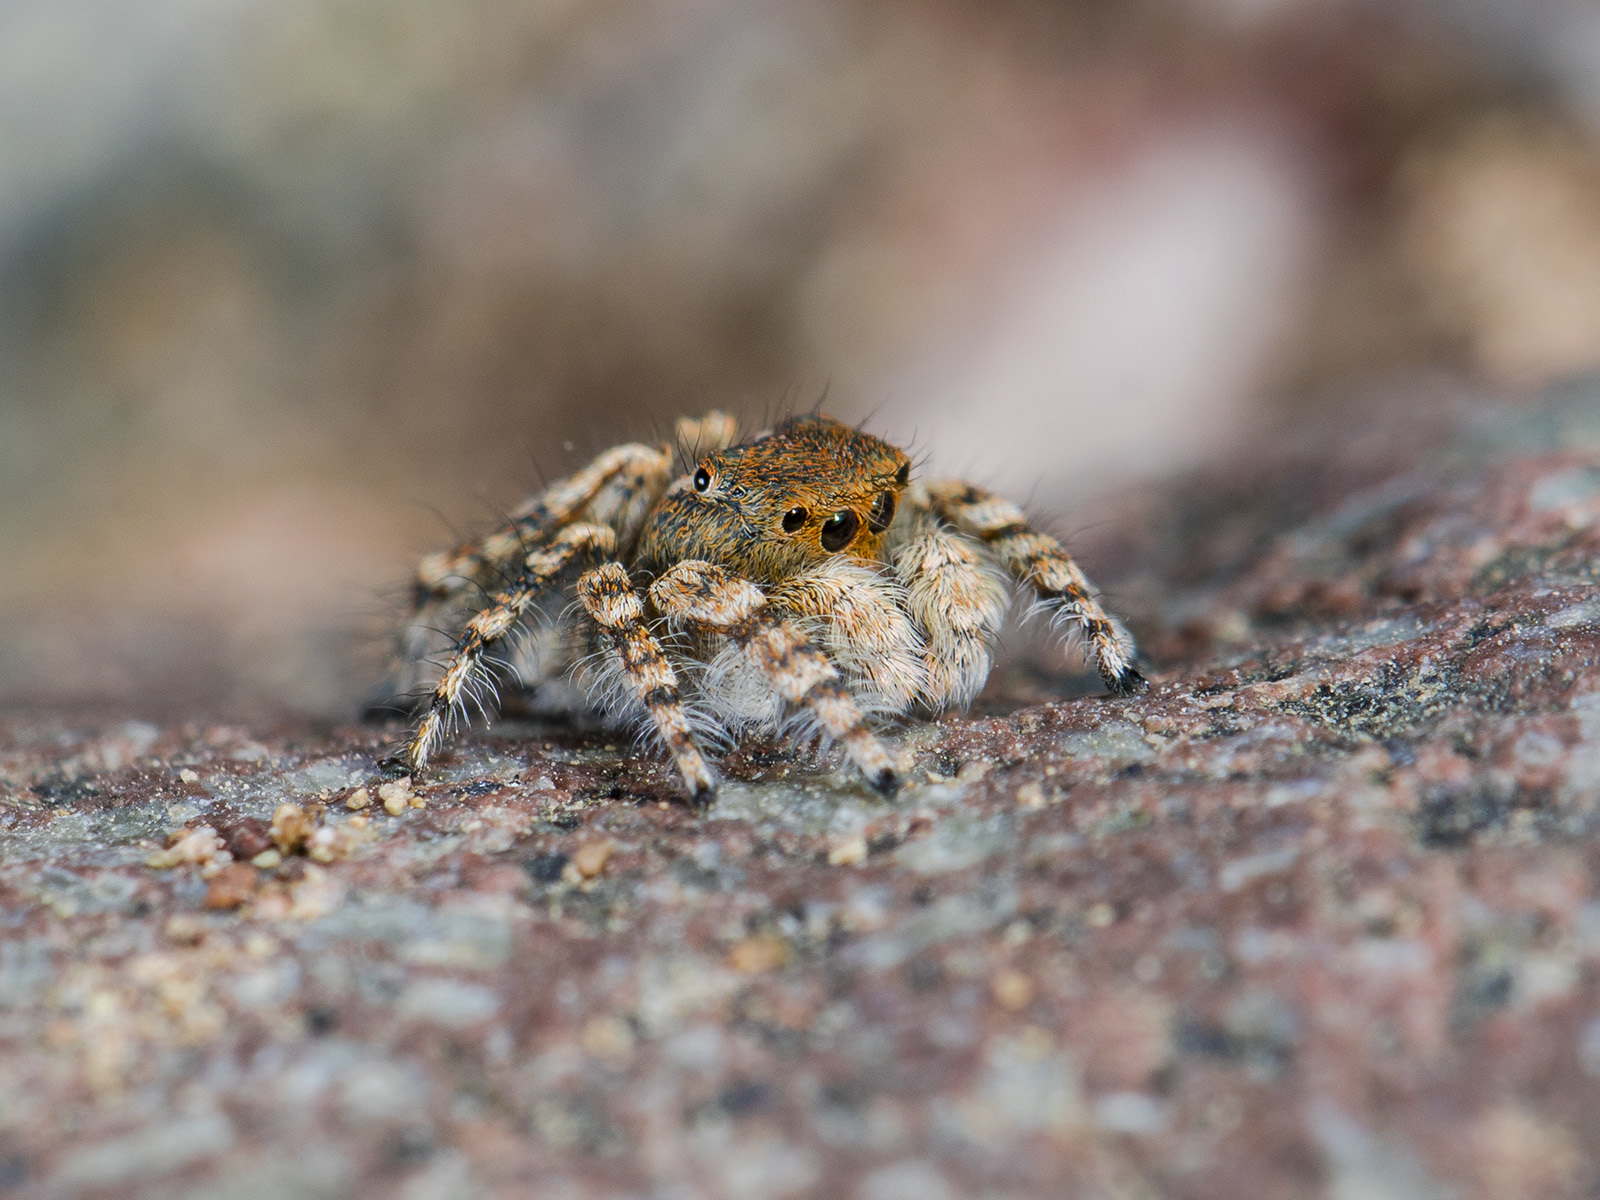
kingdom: Animalia
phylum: Arthropoda
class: Arachnida
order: Araneae
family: Salticidae
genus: Yllenus
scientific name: Yllenus zyuzini
